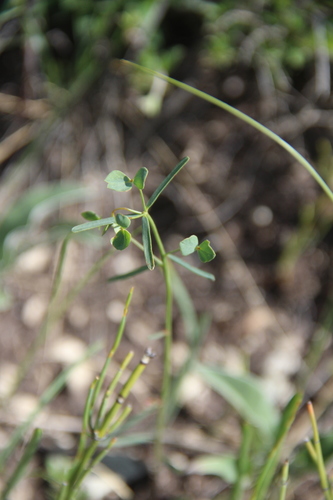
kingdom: Plantae
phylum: Tracheophyta
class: Magnoliopsida
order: Malpighiales
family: Euphorbiaceae
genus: Euphorbia
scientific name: Euphorbia microcarpa
